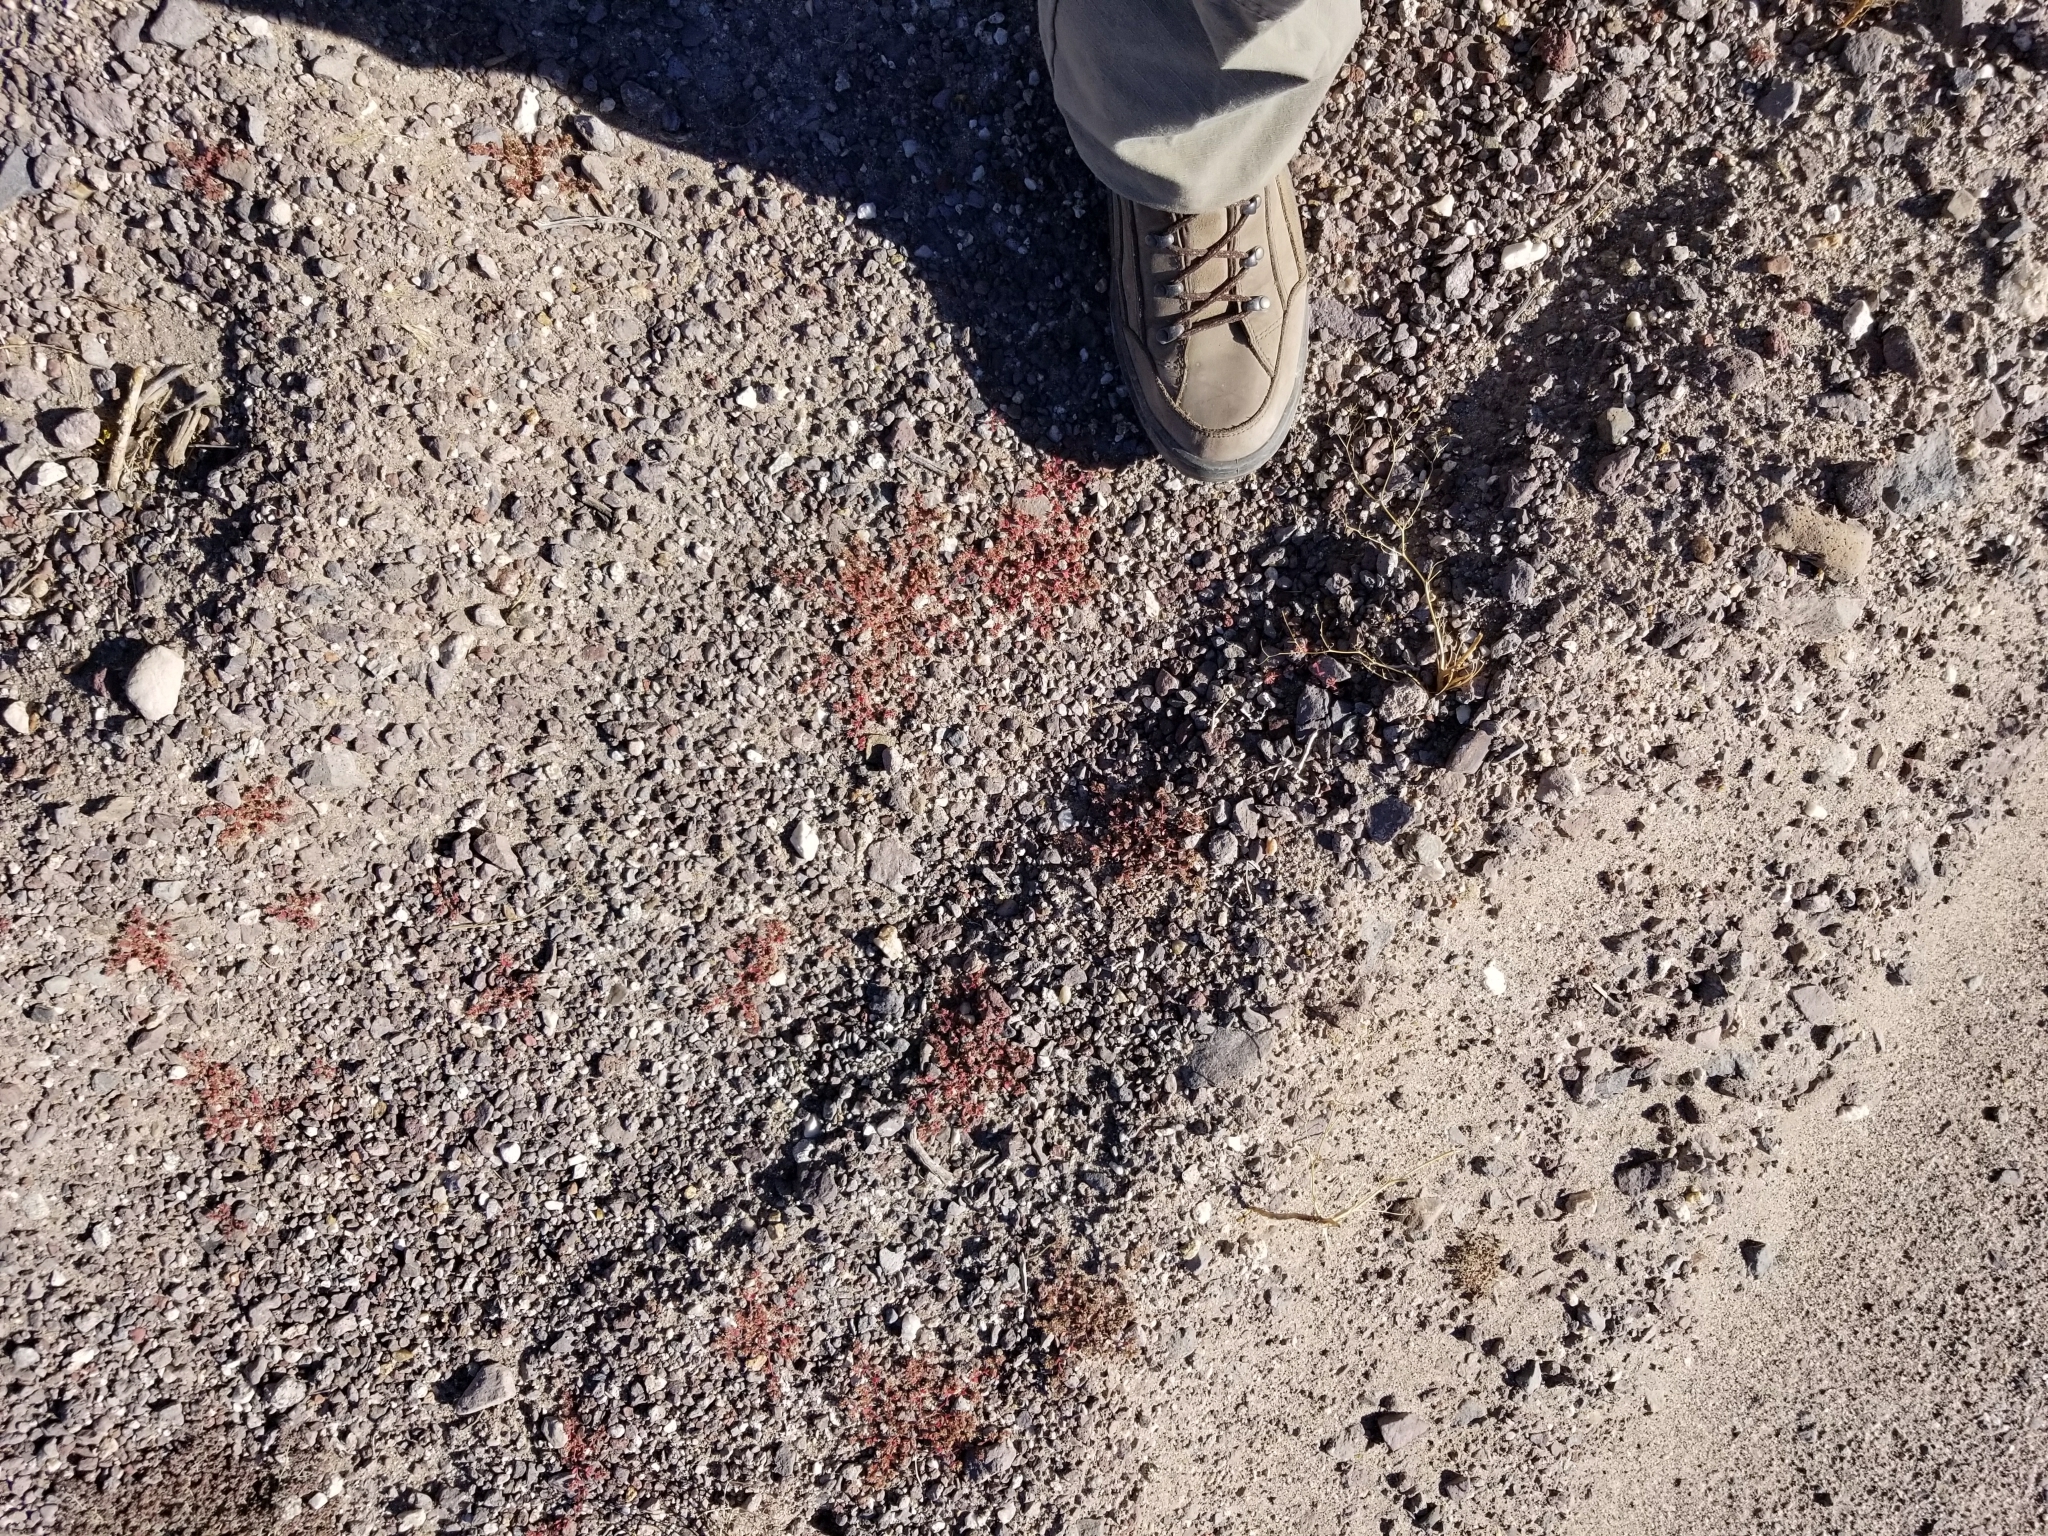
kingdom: Plantae
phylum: Tracheophyta
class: Magnoliopsida
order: Malpighiales
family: Euphorbiaceae
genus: Euphorbia
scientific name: Euphorbia setiloba
